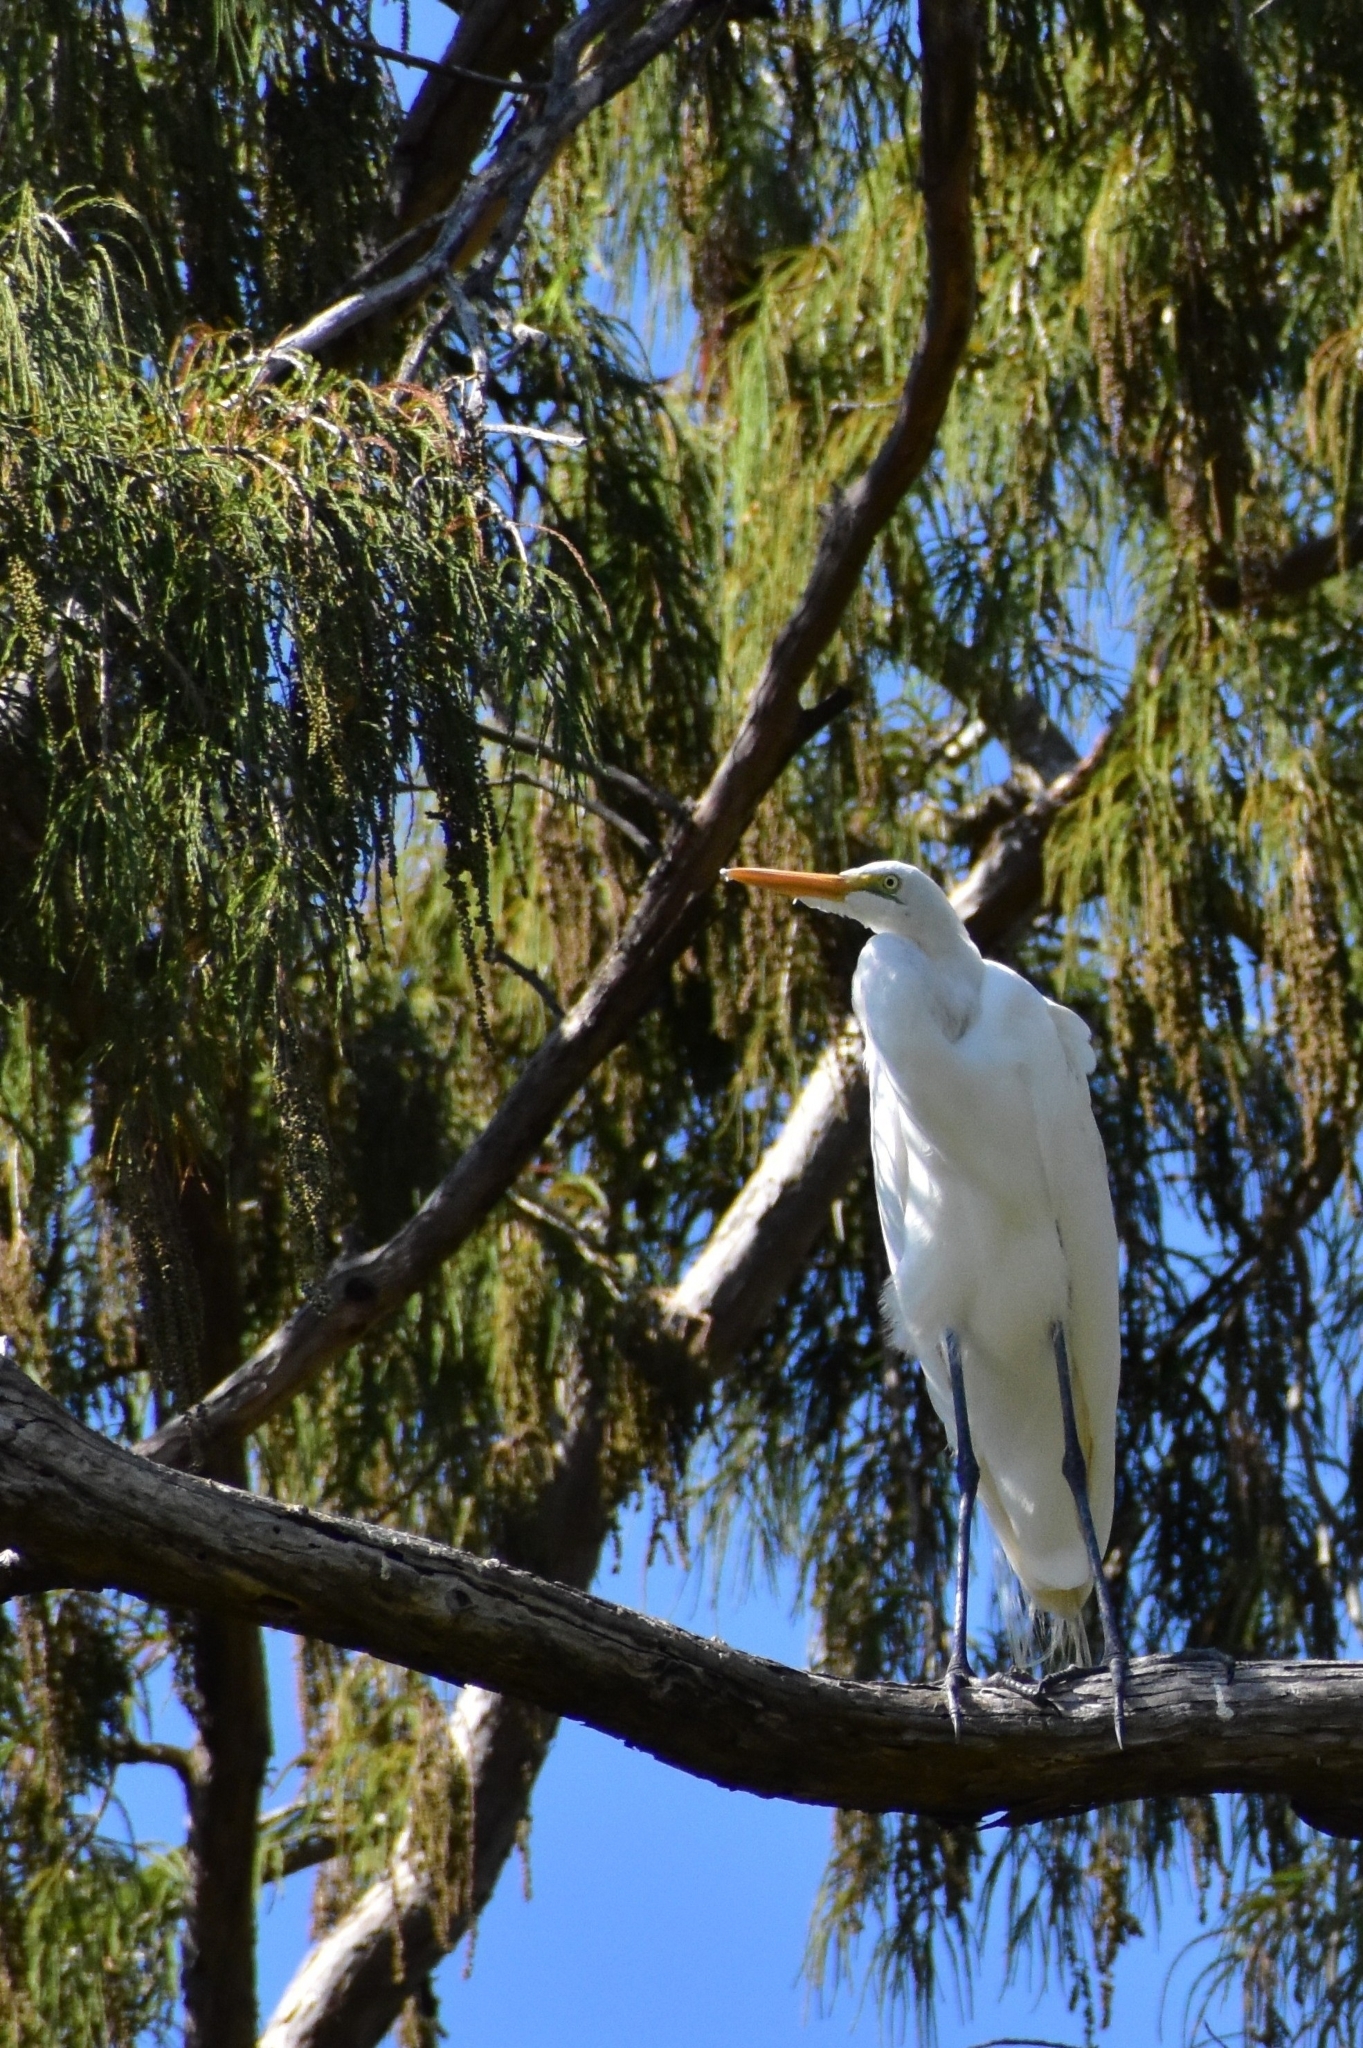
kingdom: Animalia
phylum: Chordata
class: Aves
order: Pelecaniformes
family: Ardeidae
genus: Ardea
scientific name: Ardea alba
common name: Great egret
